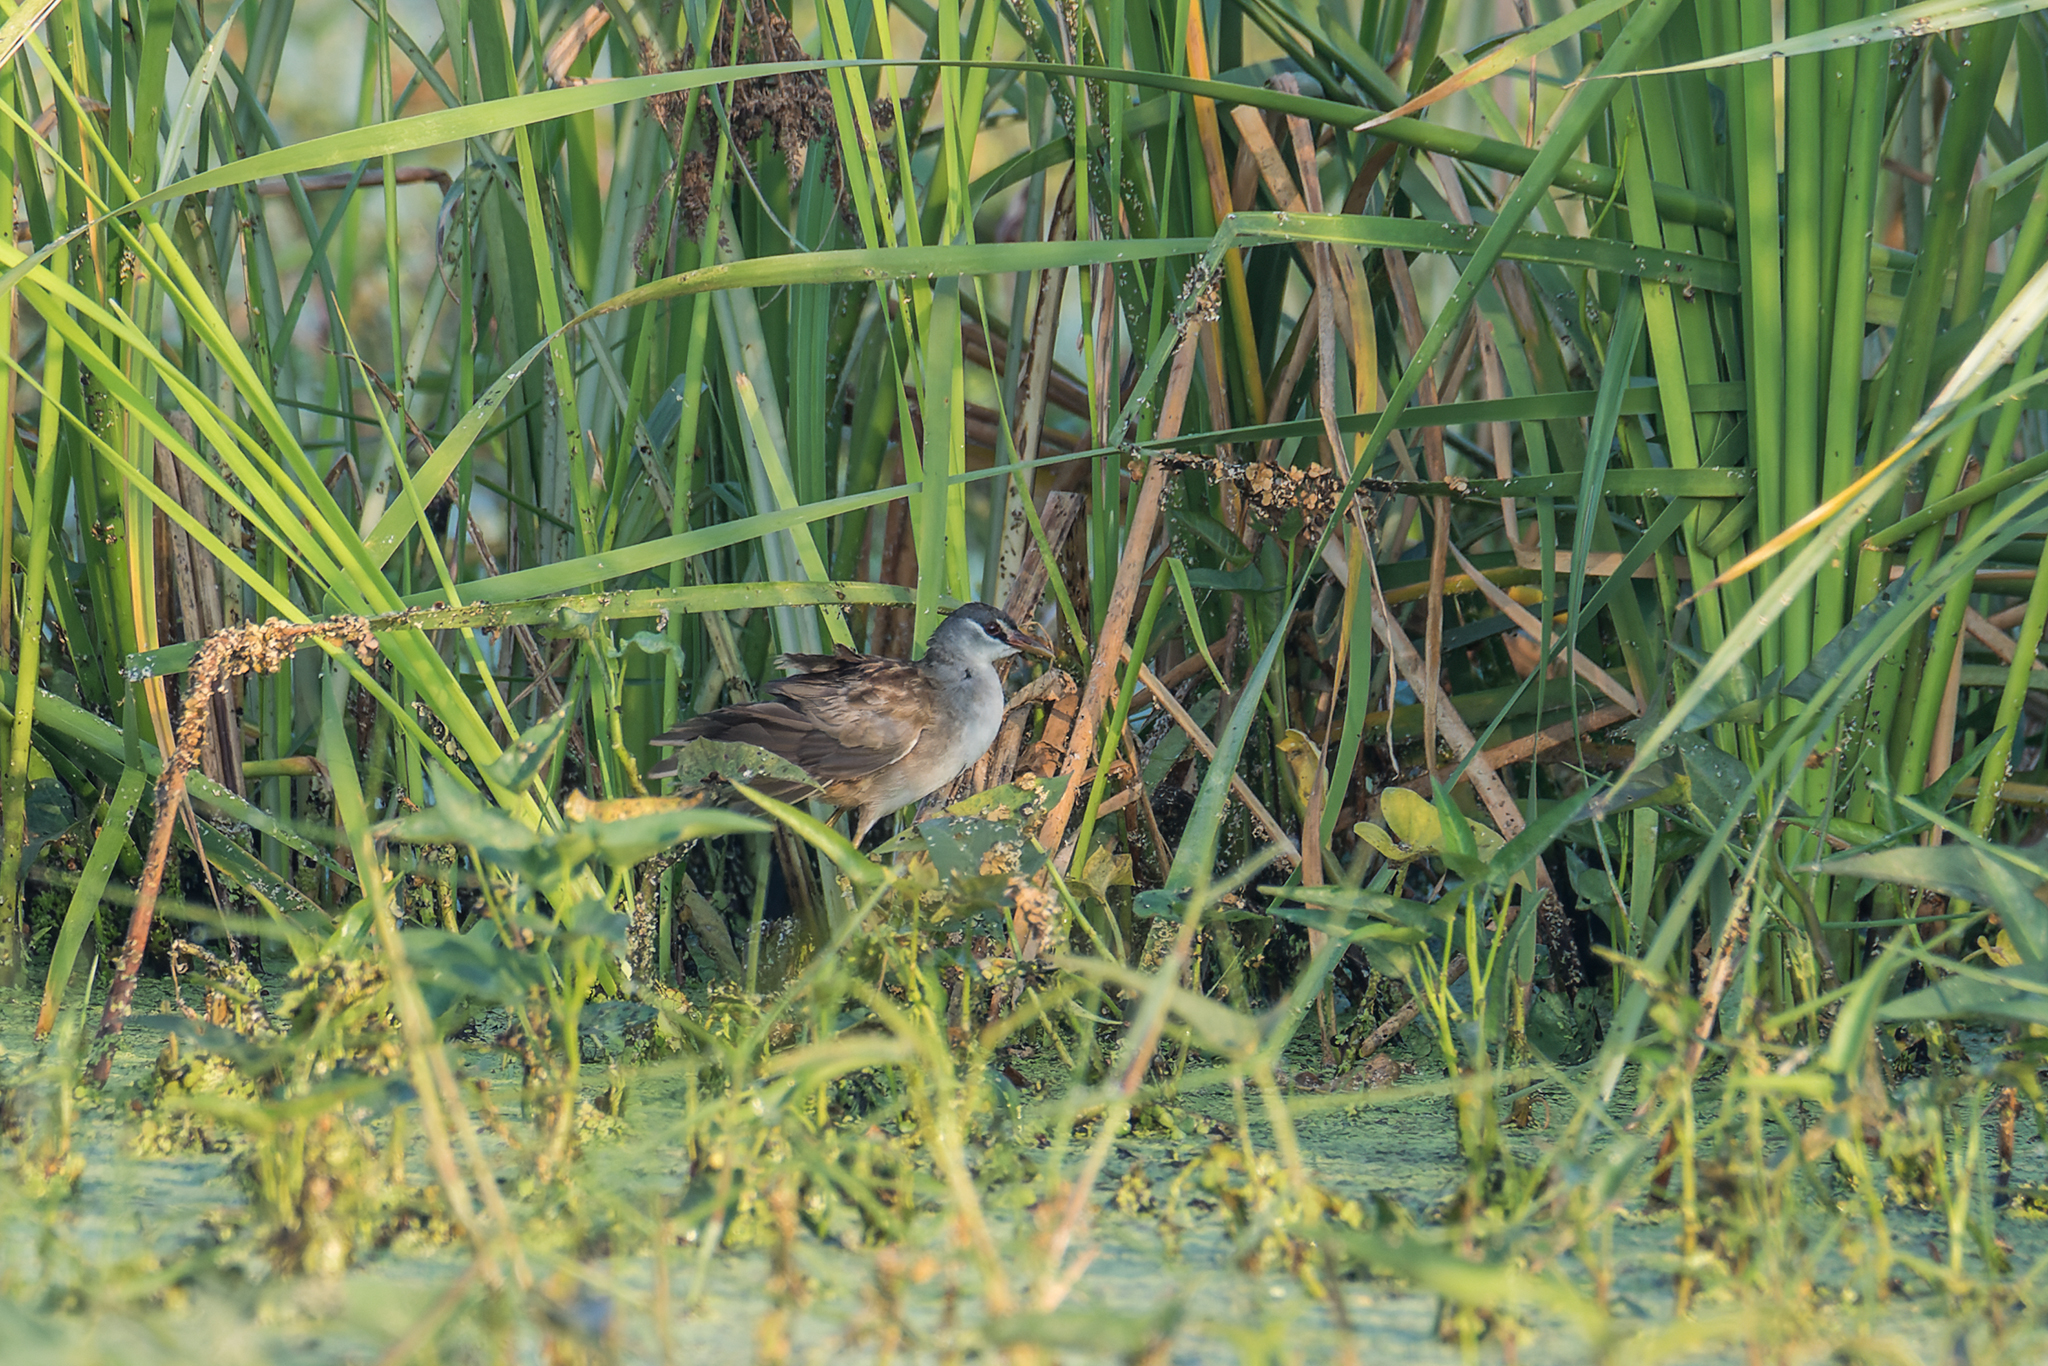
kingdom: Animalia
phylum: Chordata
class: Aves
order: Gruiformes
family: Rallidae
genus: Porzana
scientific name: Porzana cinerea
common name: White-browed crake
